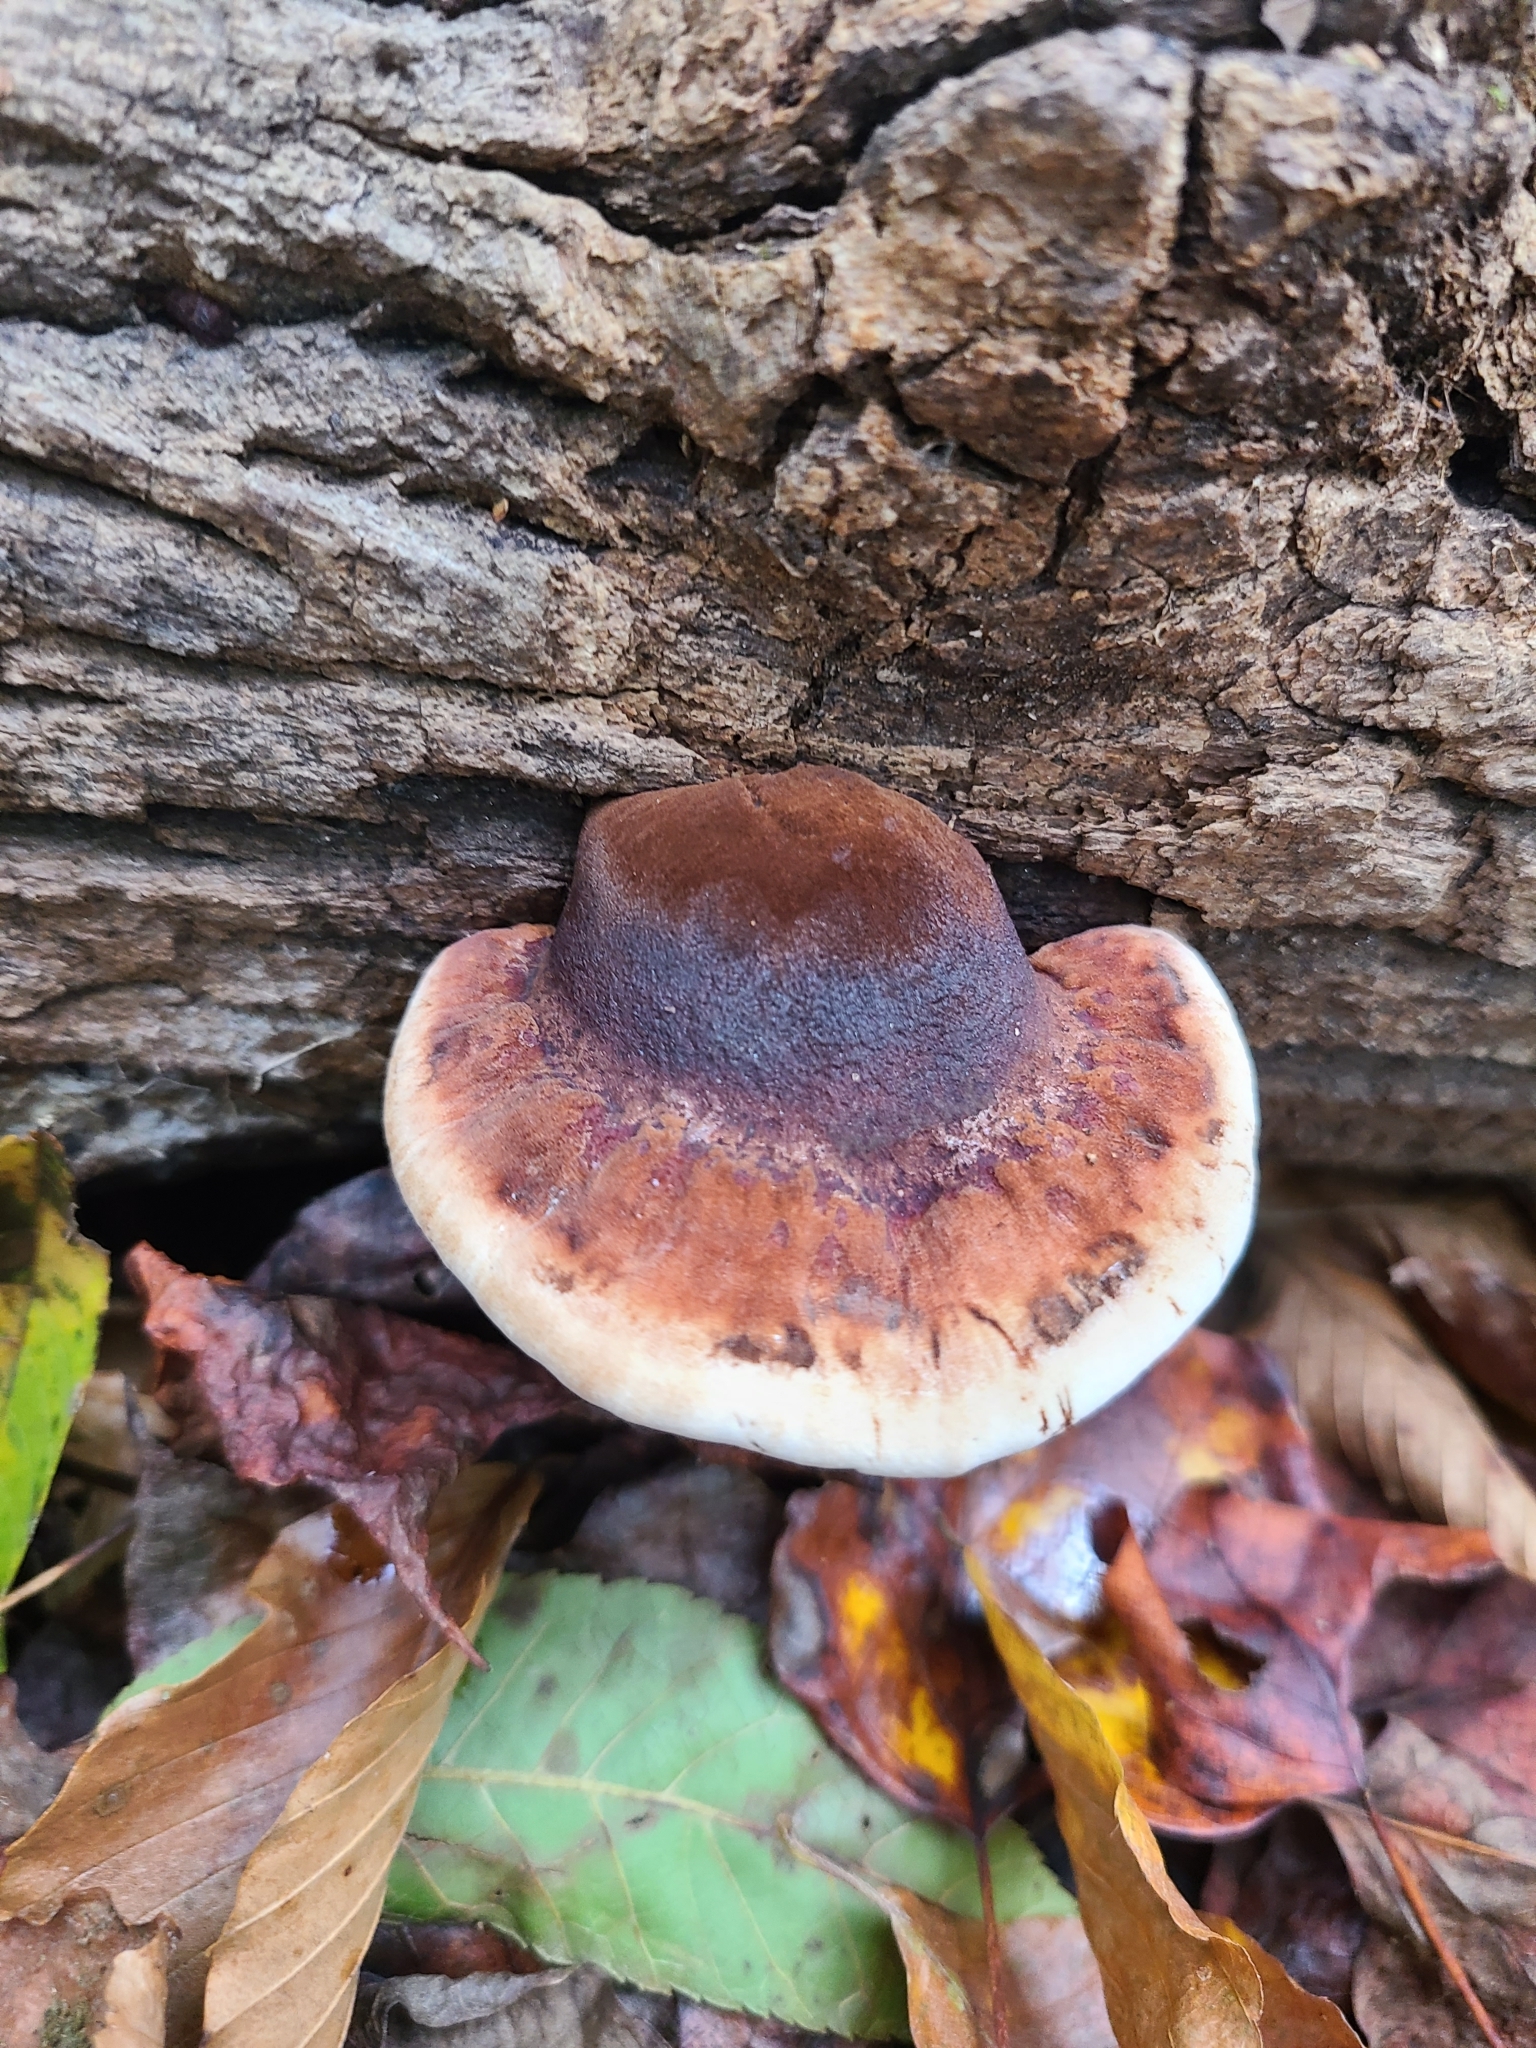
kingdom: Fungi
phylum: Basidiomycota
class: Agaricomycetes
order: Polyporales
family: Ischnodermataceae
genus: Ischnoderma
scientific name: Ischnoderma resinosum
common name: Resinous polypore
